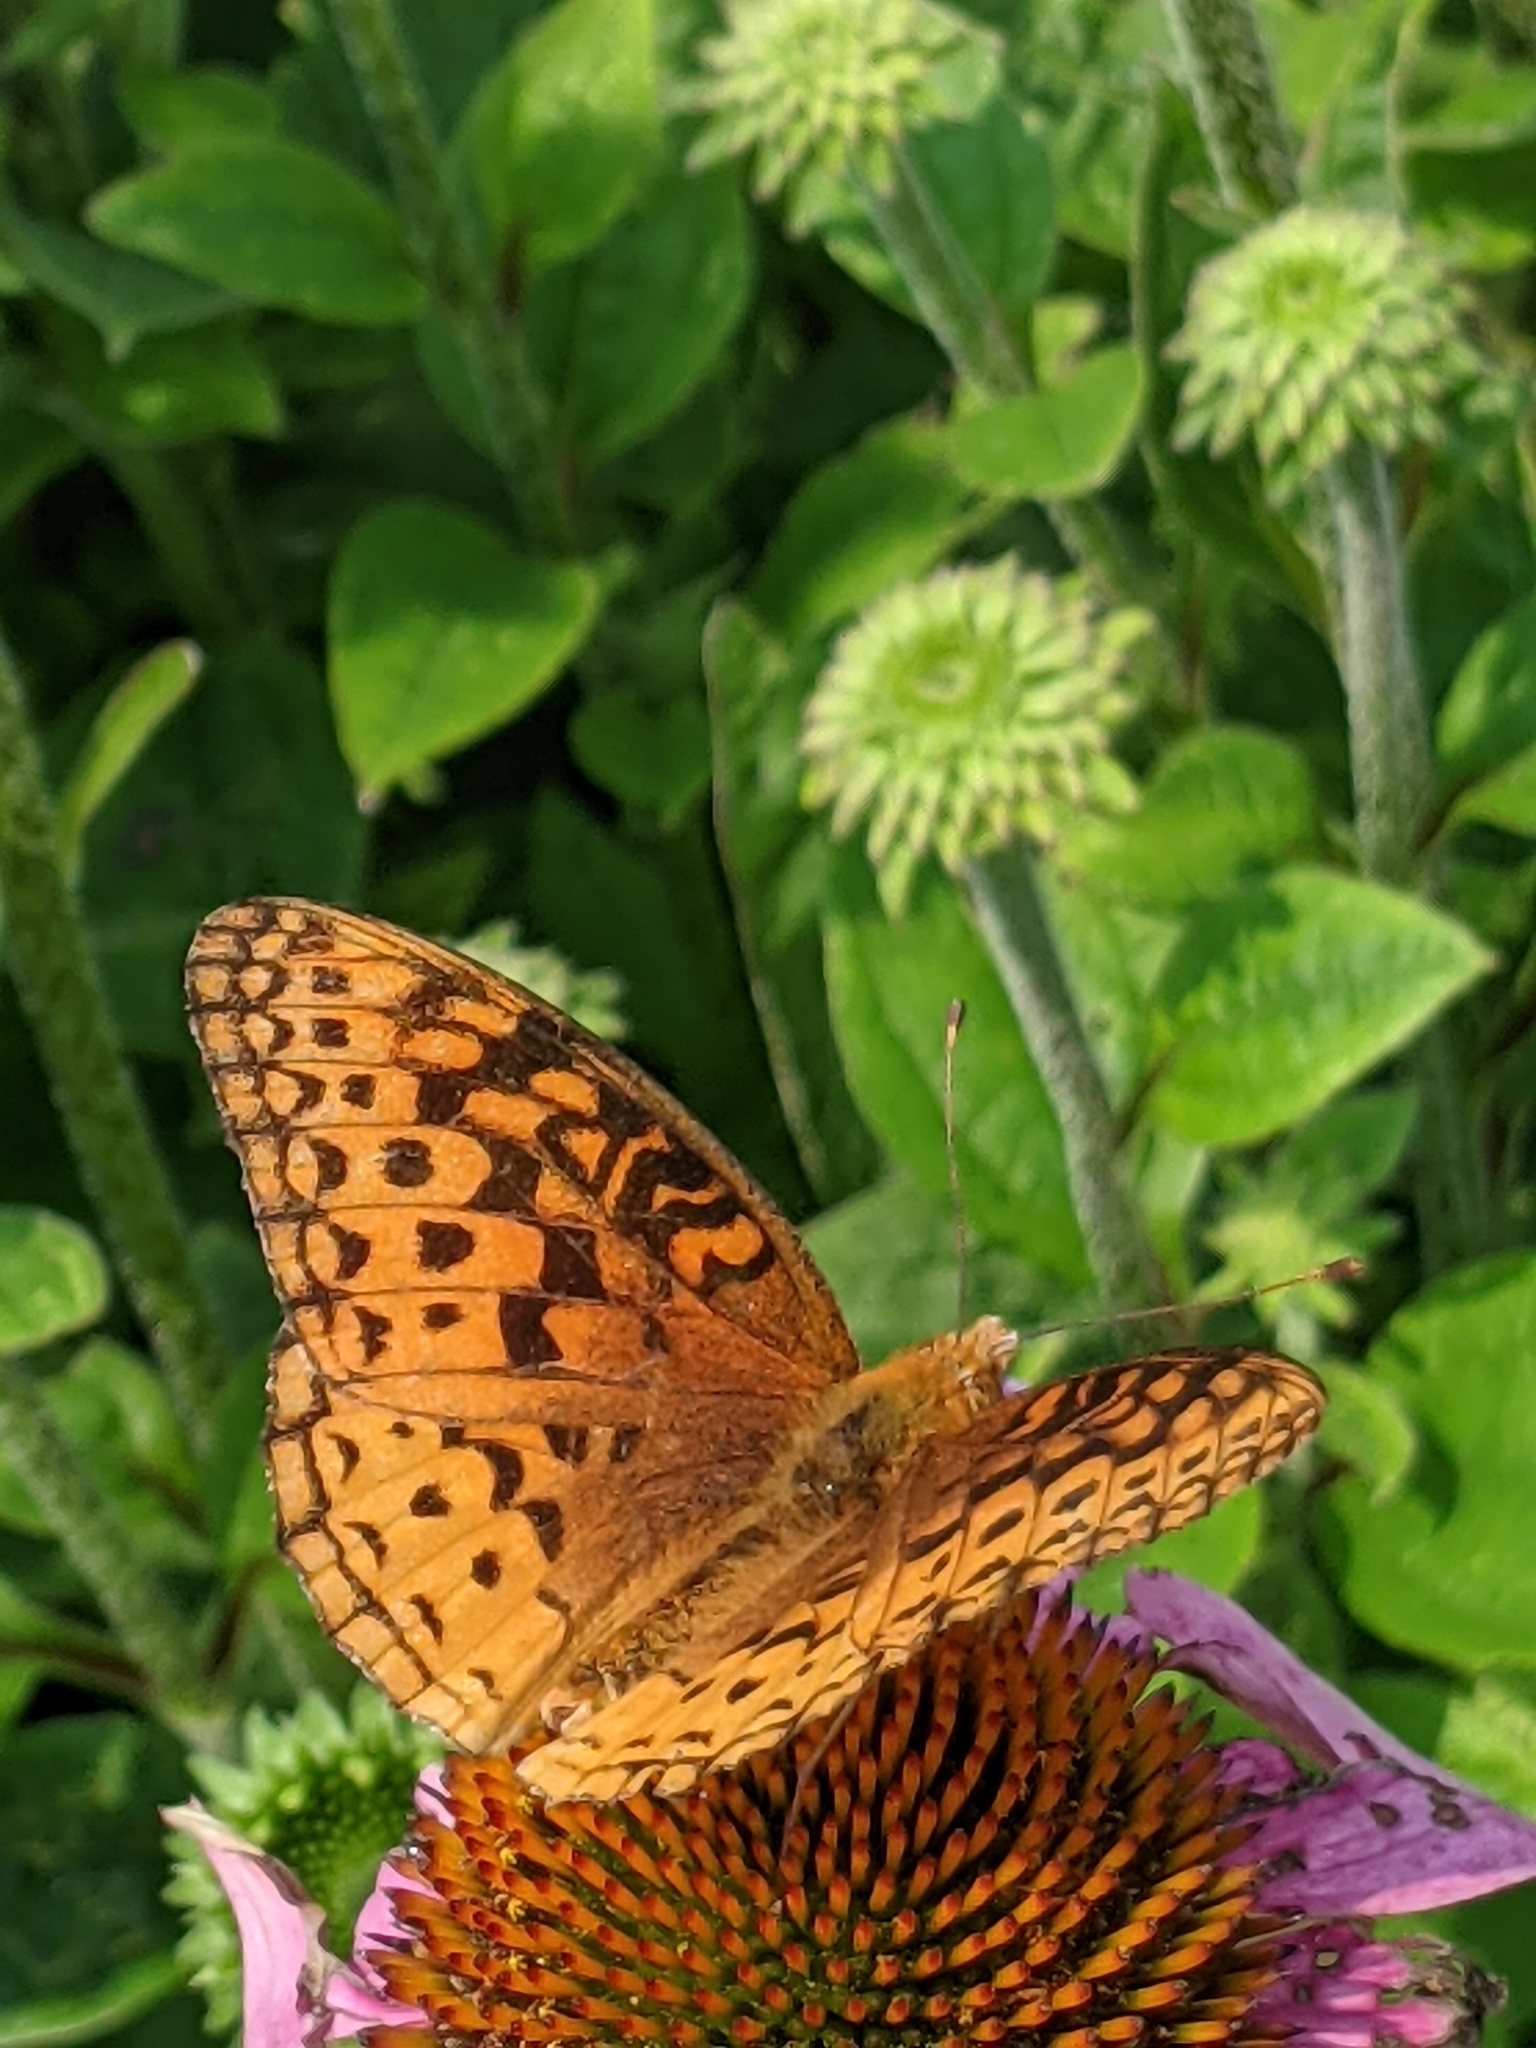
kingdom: Animalia
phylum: Arthropoda
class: Insecta
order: Lepidoptera
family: Nymphalidae
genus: Speyeria
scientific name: Speyeria aphrodite
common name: Aphrodite friitllary
